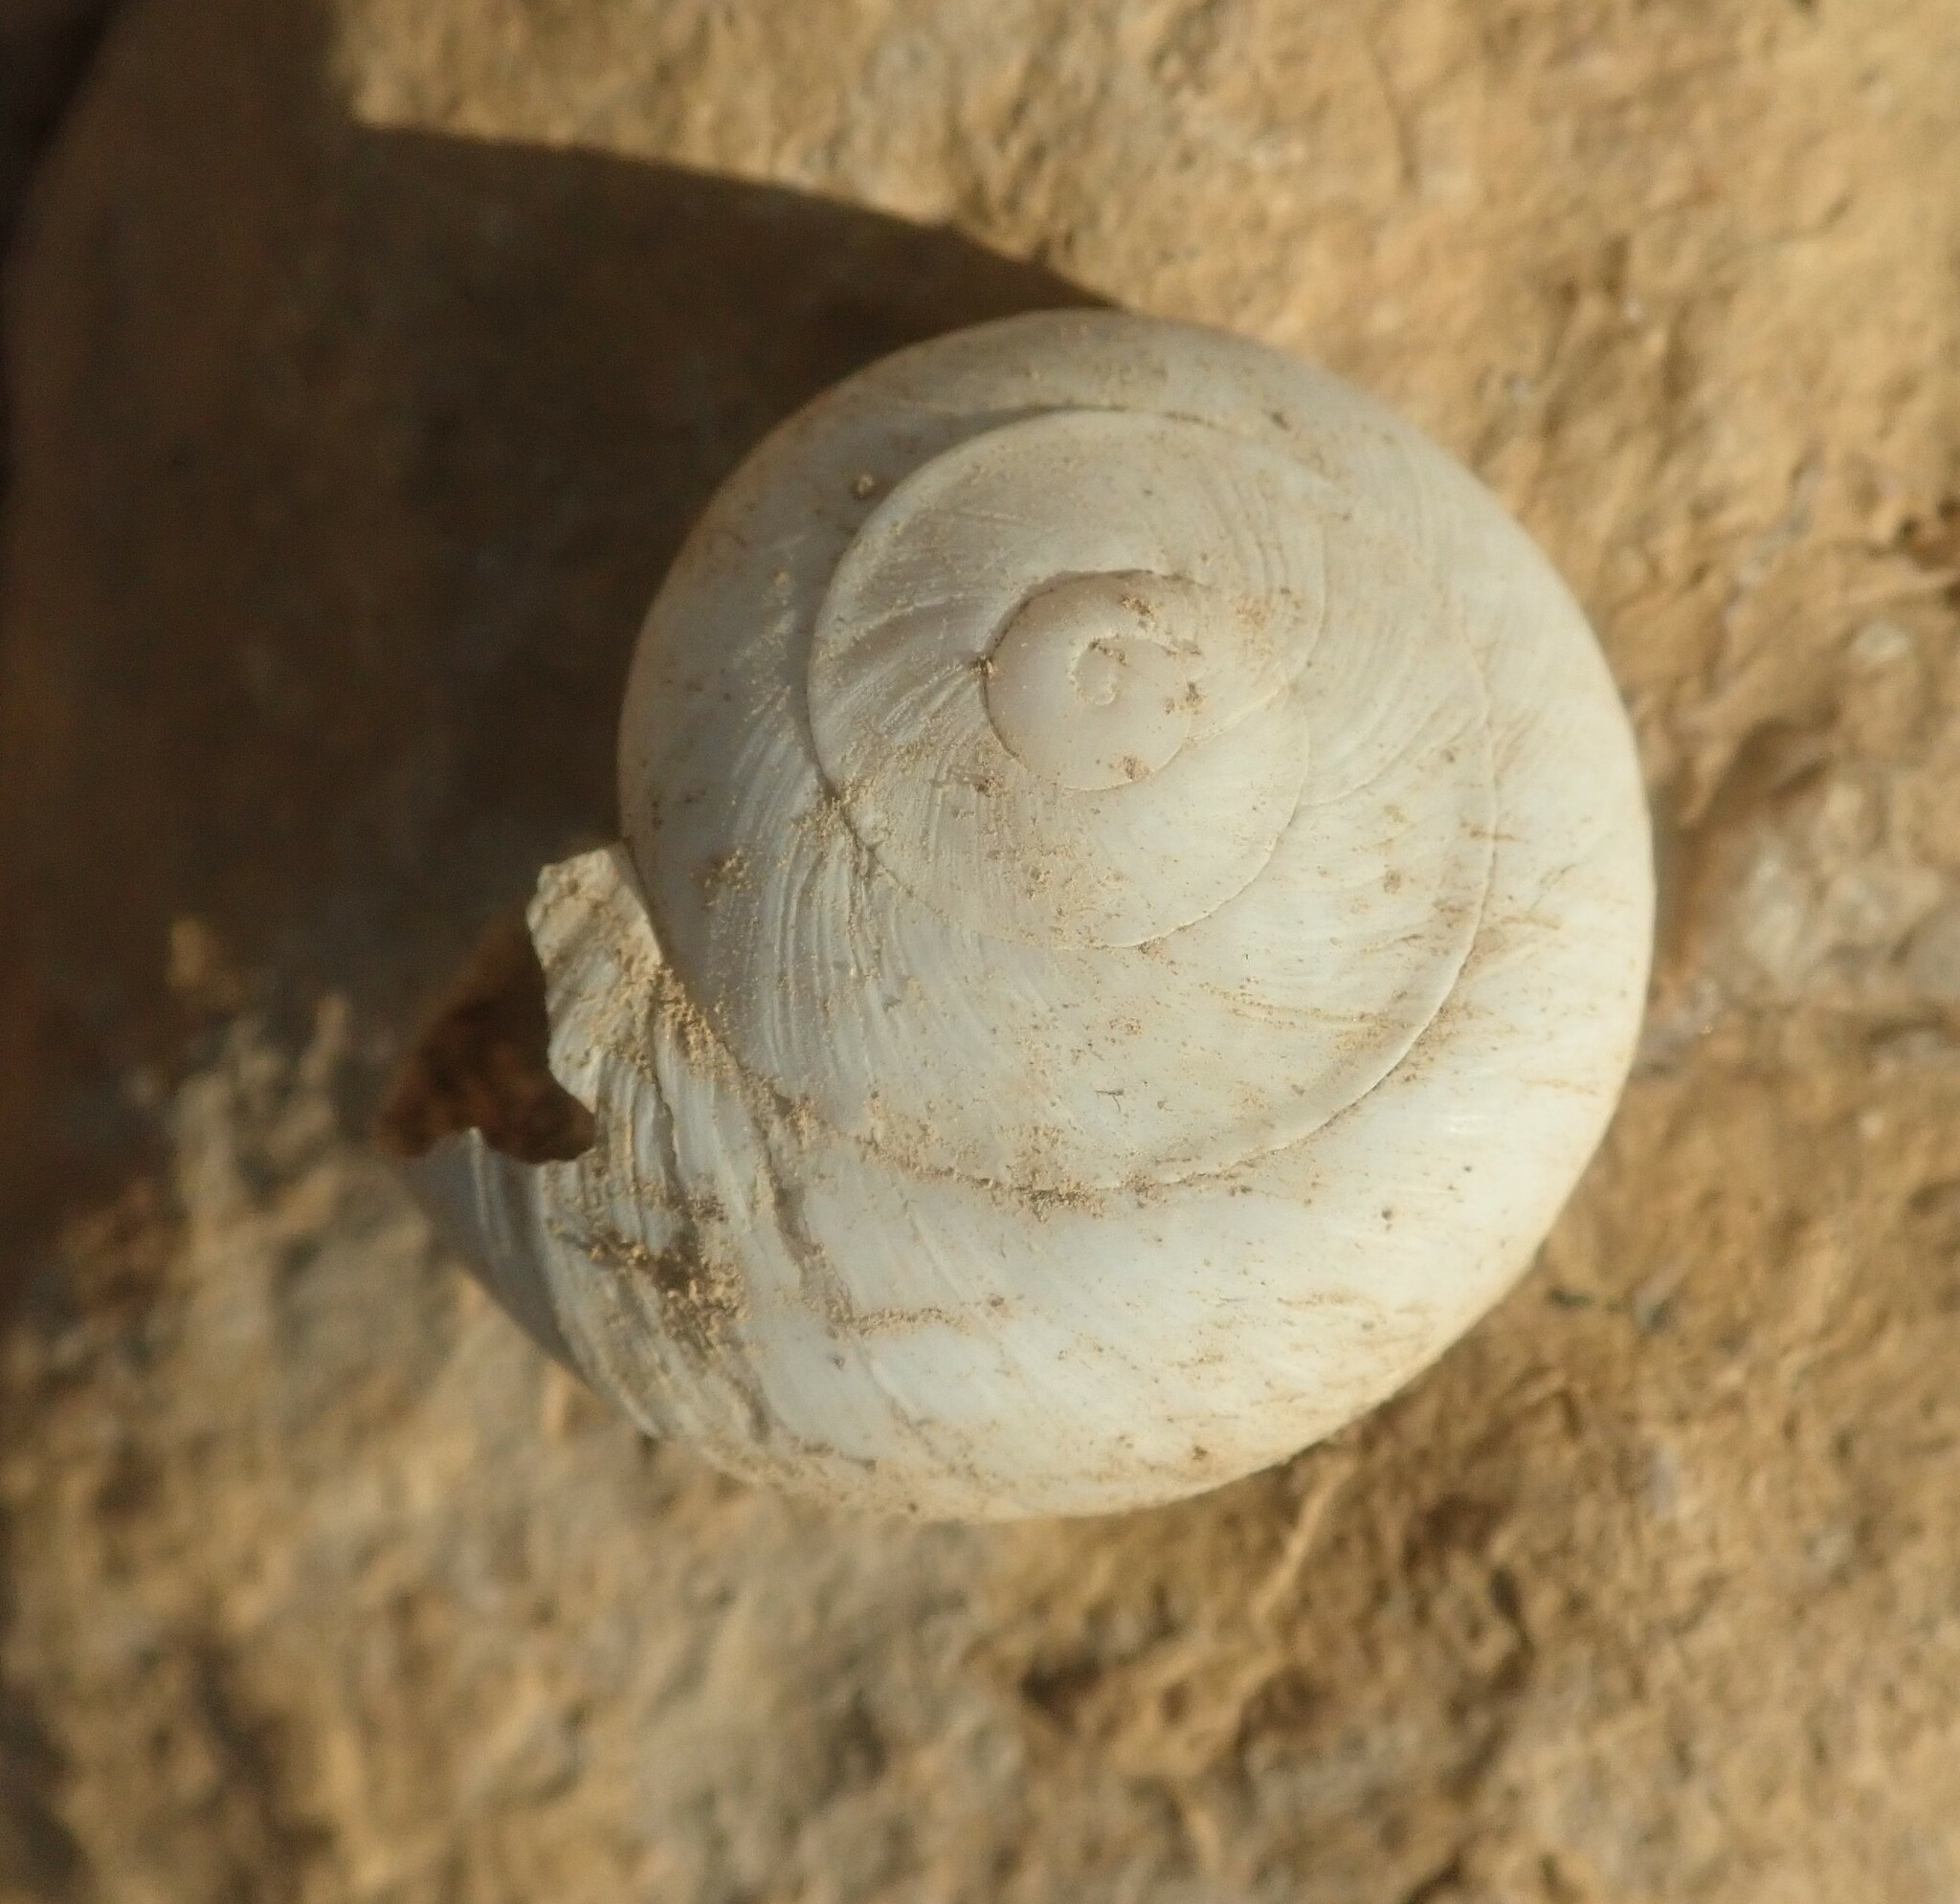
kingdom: Animalia
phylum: Mollusca
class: Gastropoda
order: Stylommatophora
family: Helicidae
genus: Levantina
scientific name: Levantina spiriplana
